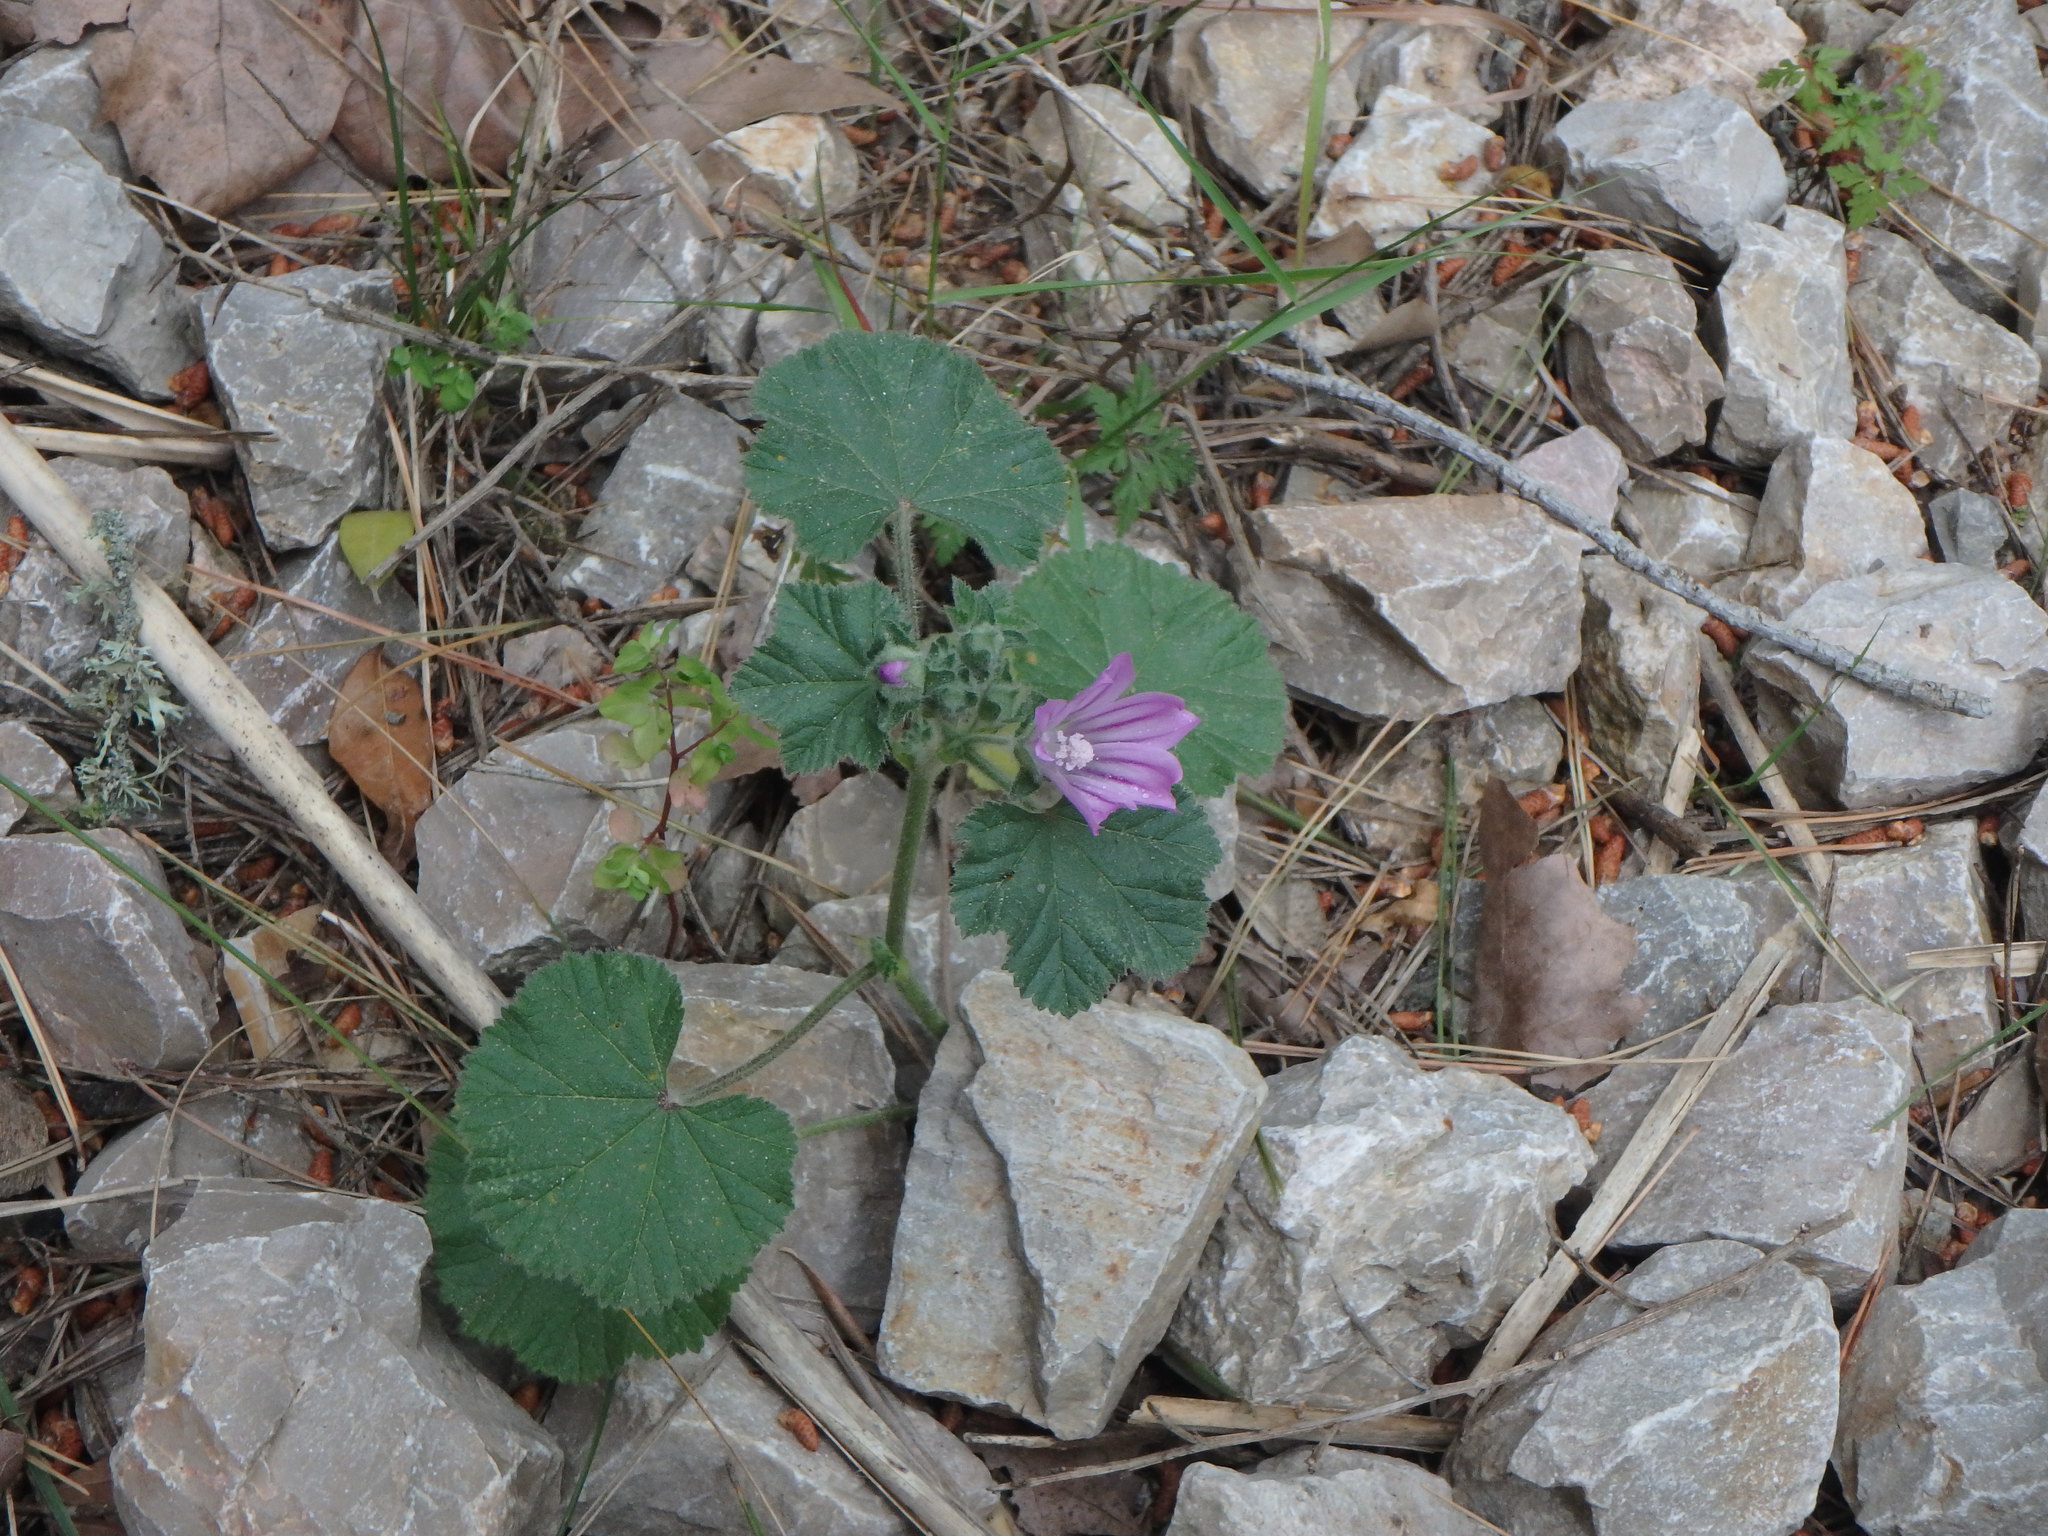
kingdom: Plantae
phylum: Tracheophyta
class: Magnoliopsida
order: Malvales
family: Malvaceae
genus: Malva
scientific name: Malva sylvestris
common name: Common mallow
